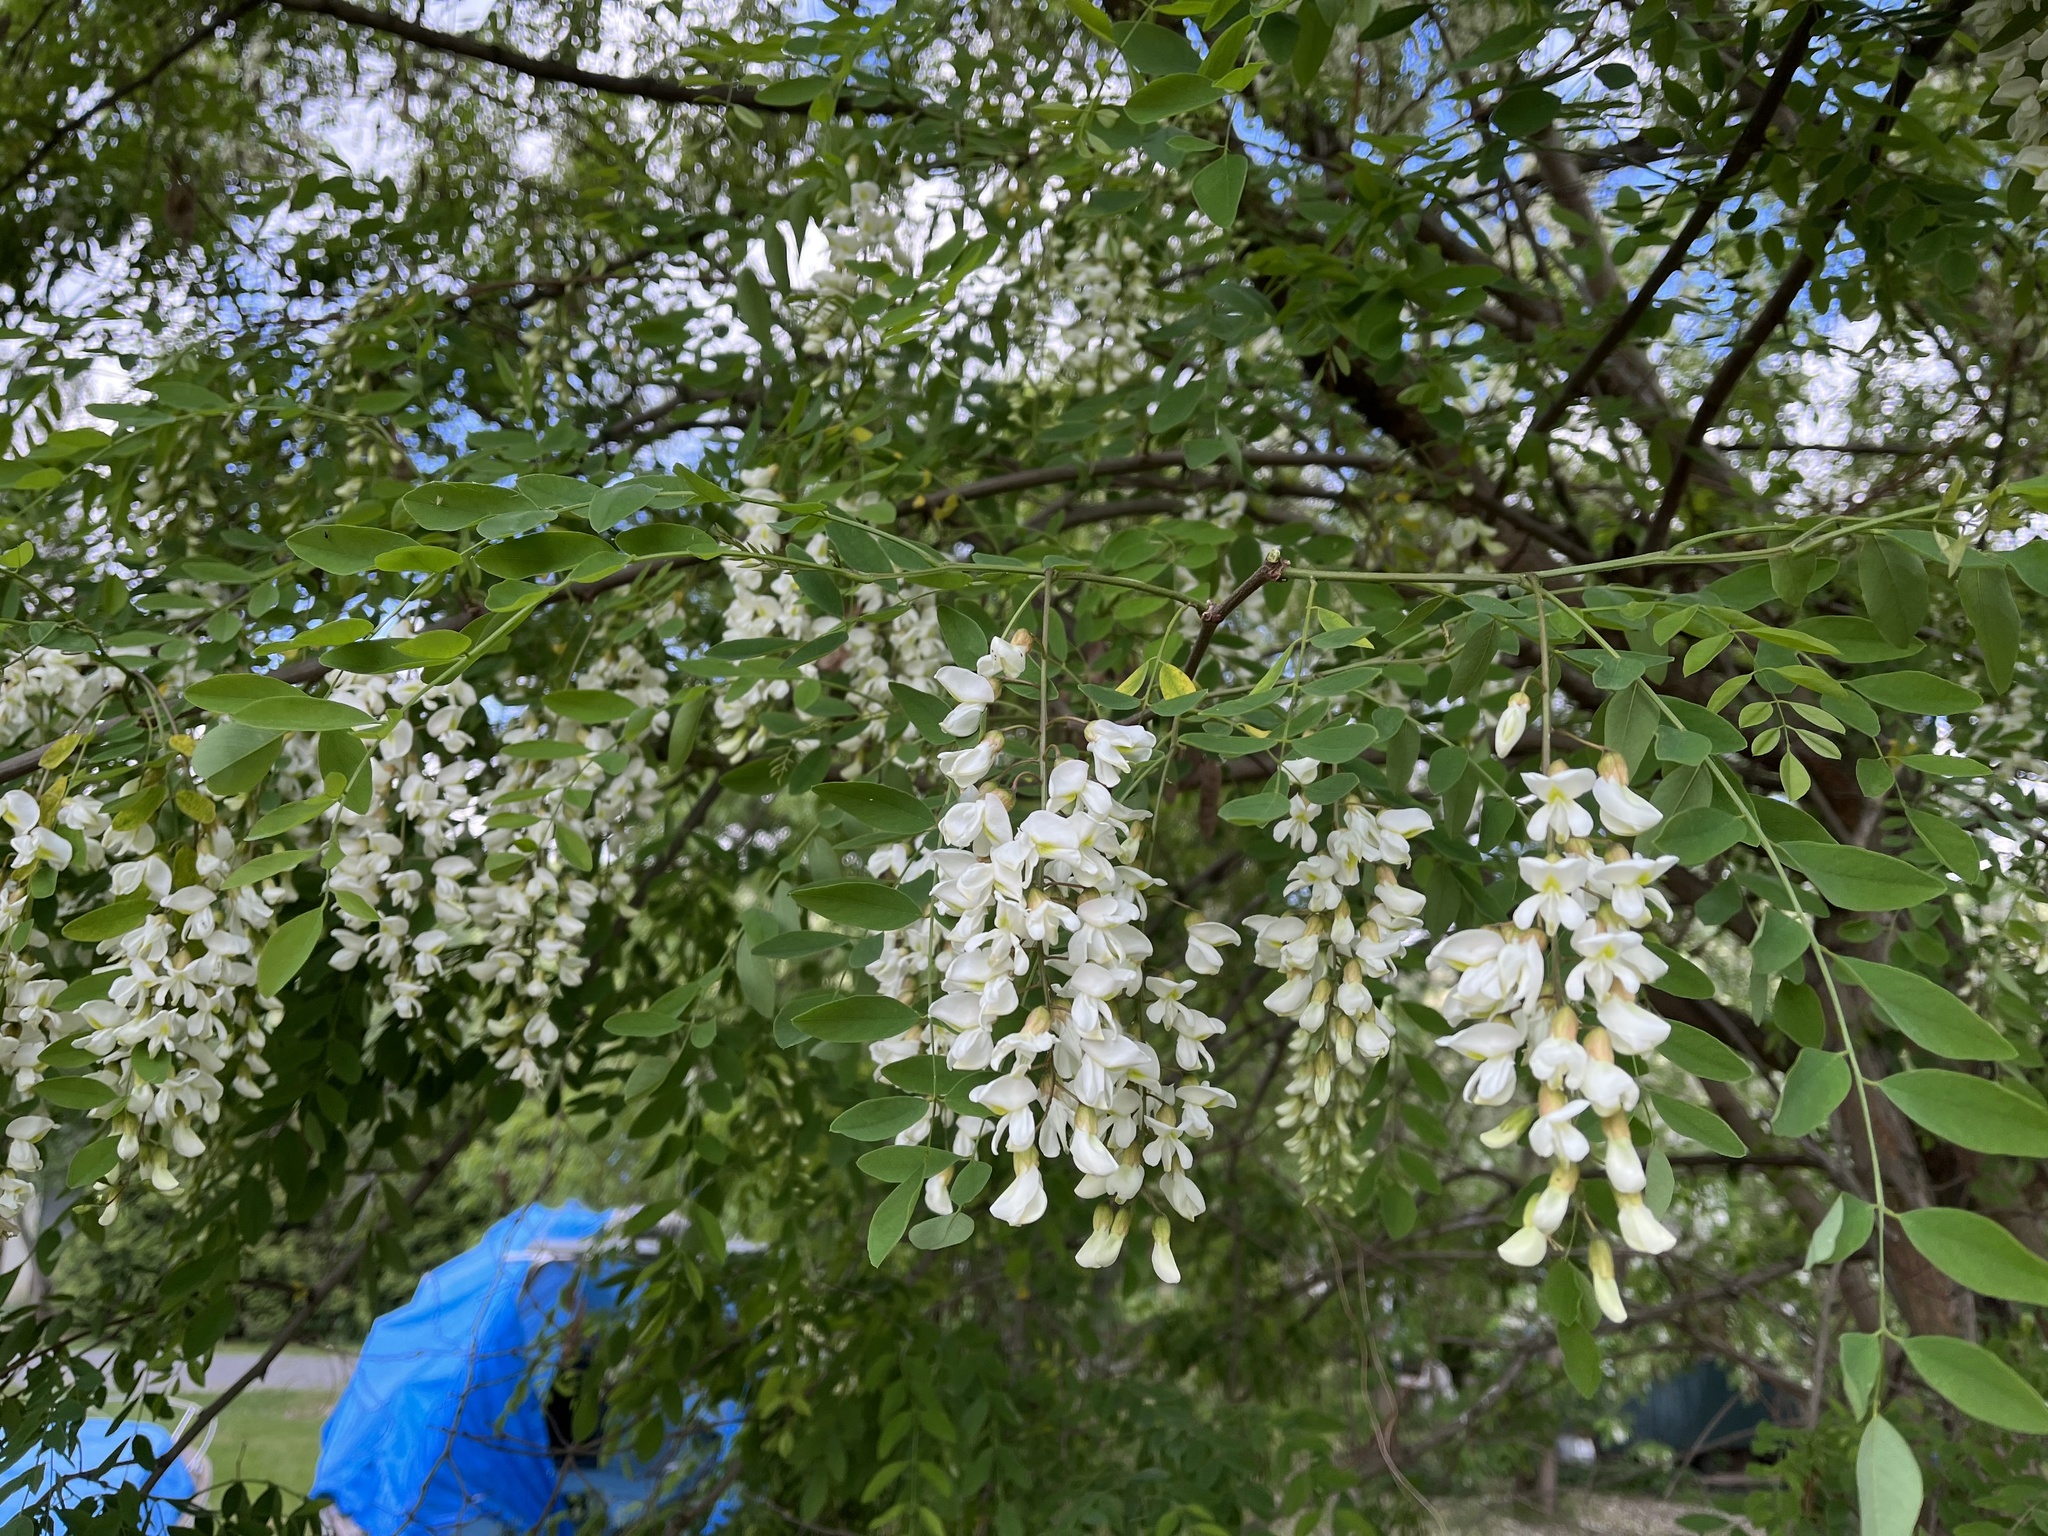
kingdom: Plantae
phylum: Tracheophyta
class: Magnoliopsida
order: Fabales
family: Fabaceae
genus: Robinia
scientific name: Robinia pseudoacacia
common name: Black locust
